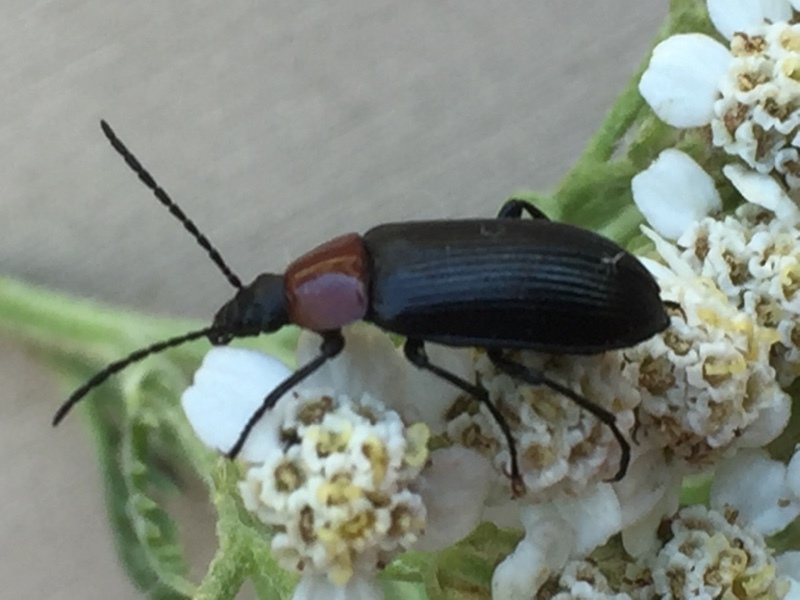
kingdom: Animalia
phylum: Arthropoda
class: Insecta
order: Coleoptera
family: Tenebrionidae
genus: Heliotaurus
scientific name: Heliotaurus ruficollis
